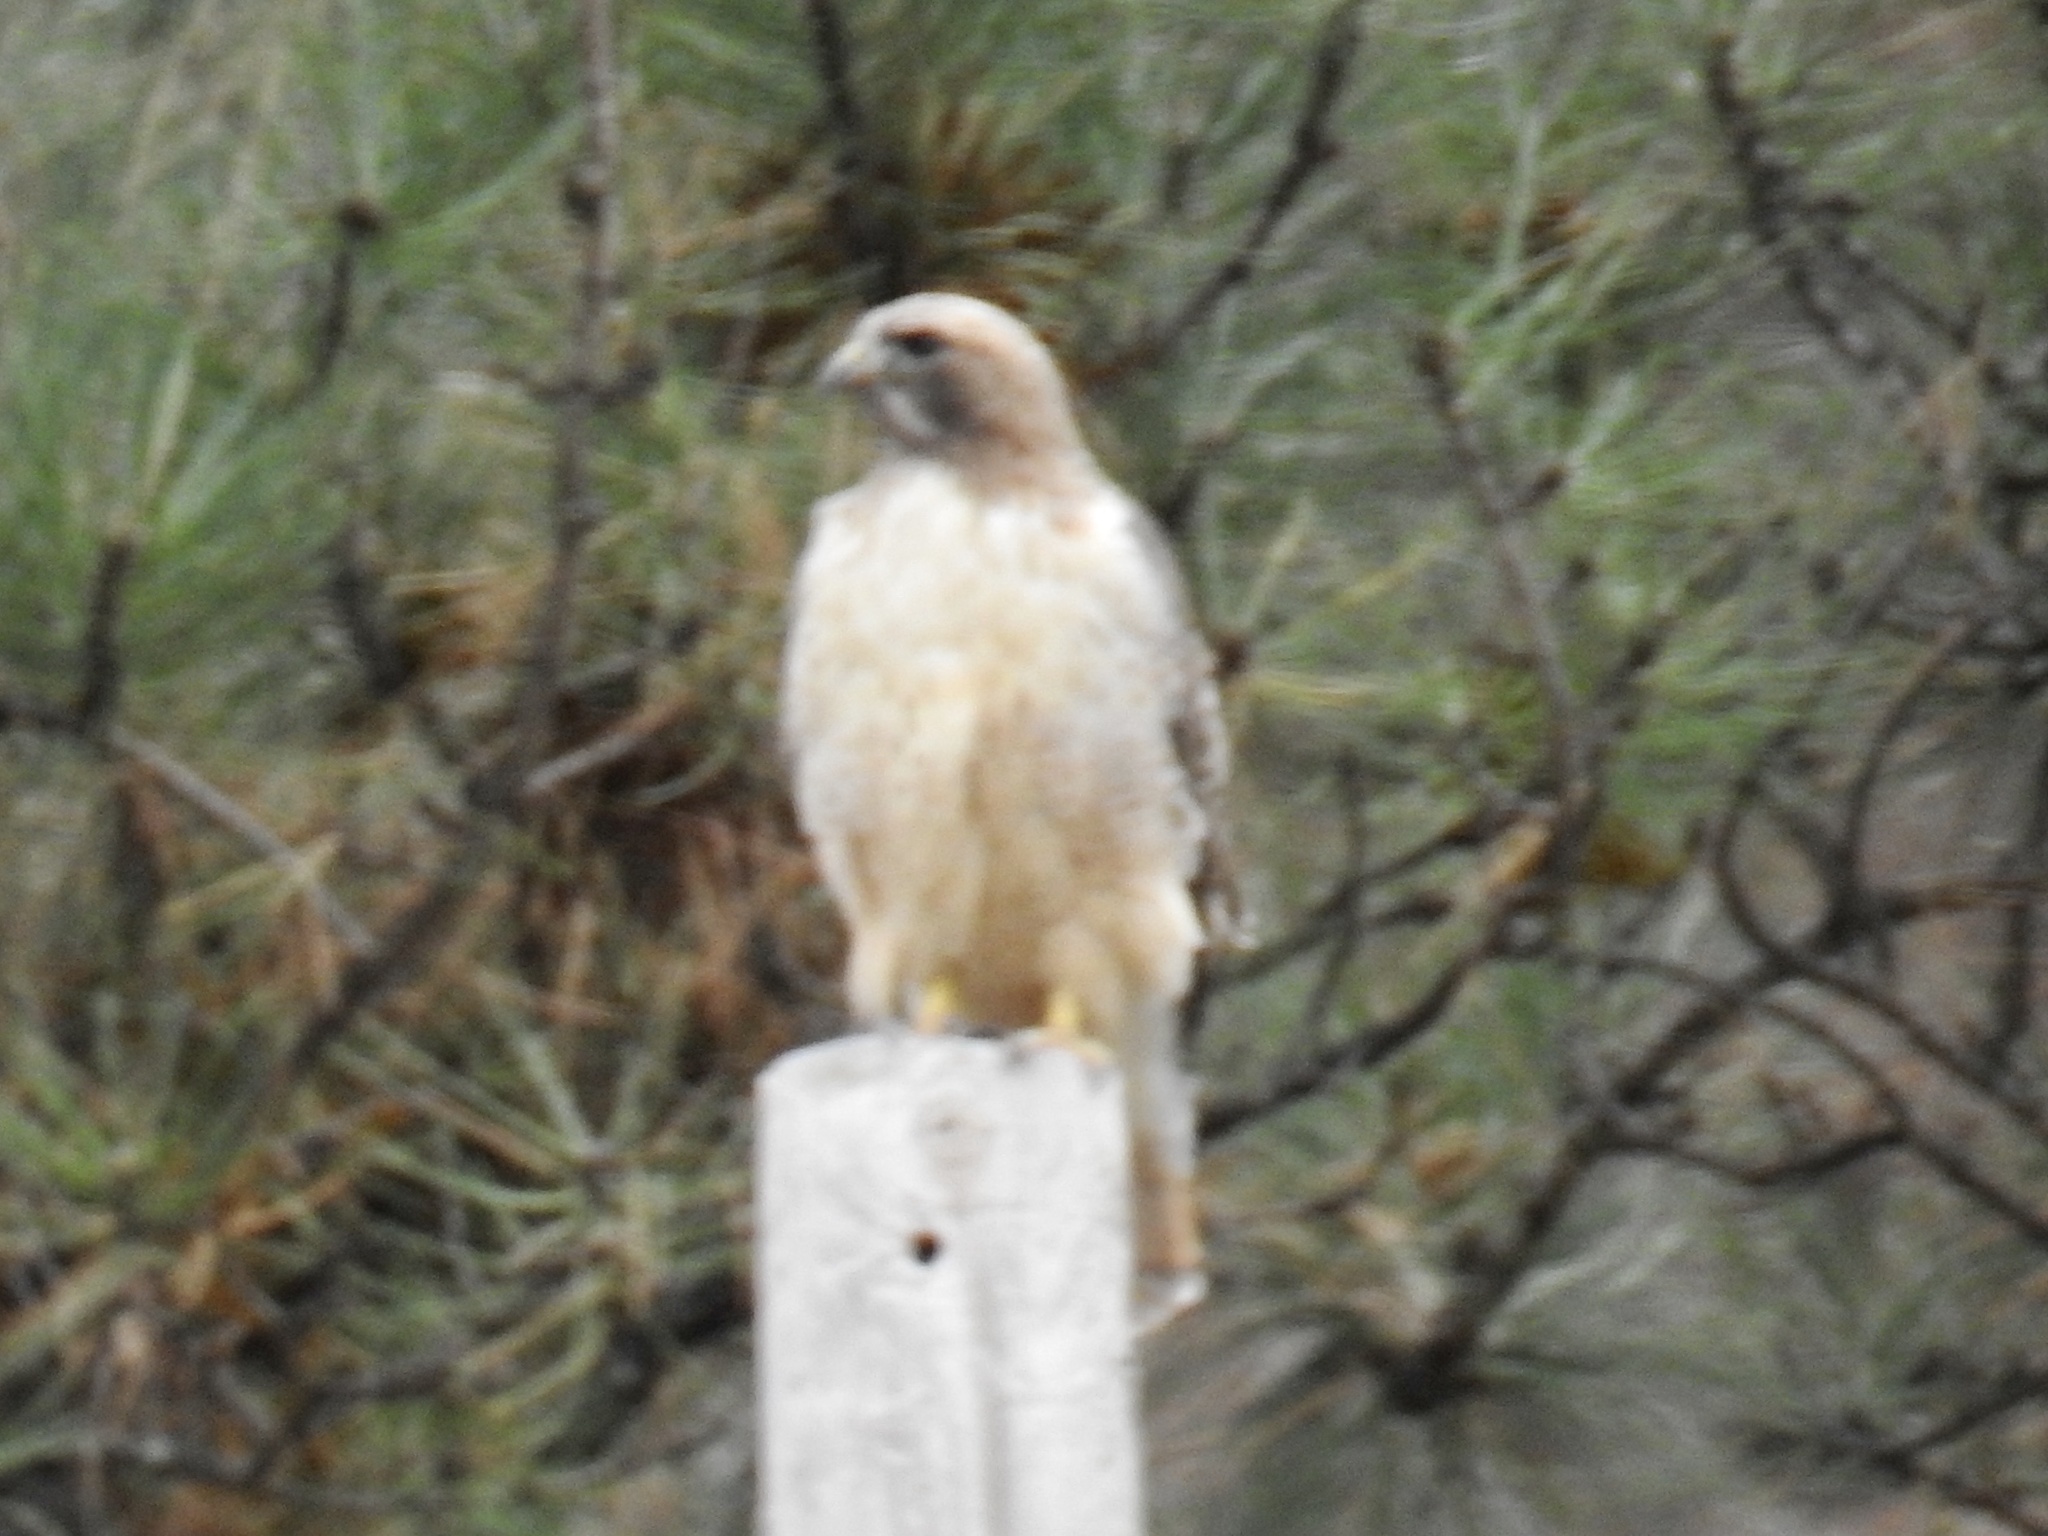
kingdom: Animalia
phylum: Chordata
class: Aves
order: Accipitriformes
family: Accipitridae
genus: Buteo
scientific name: Buteo jamaicensis
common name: Red-tailed hawk
